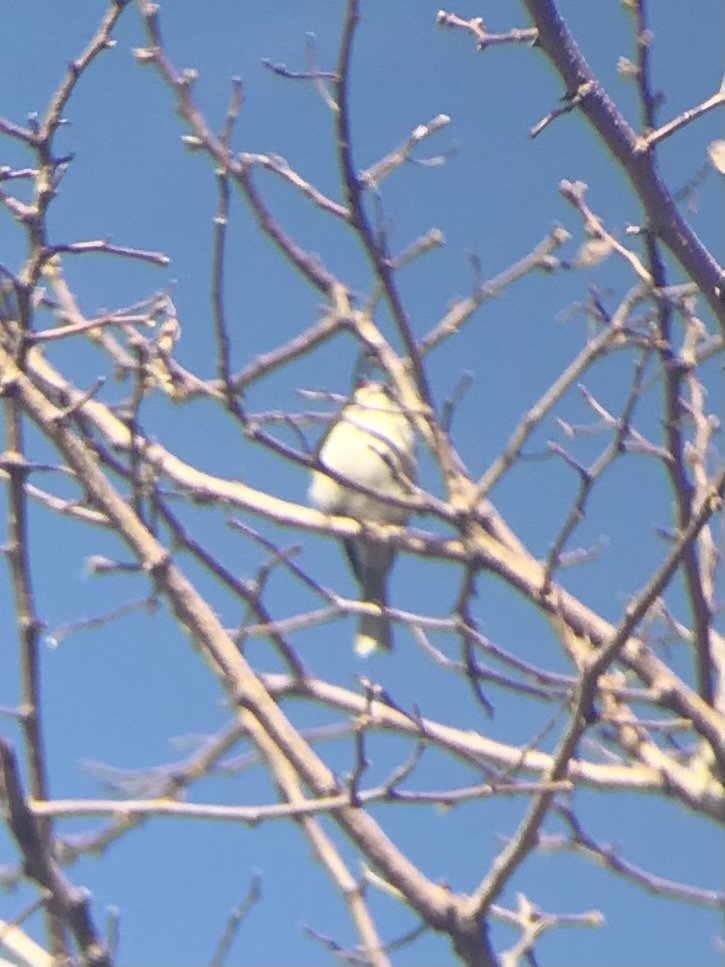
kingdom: Animalia
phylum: Chordata
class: Aves
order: Passeriformes
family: Passerellidae
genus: Spizella
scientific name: Spizella passerina
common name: Chipping sparrow
